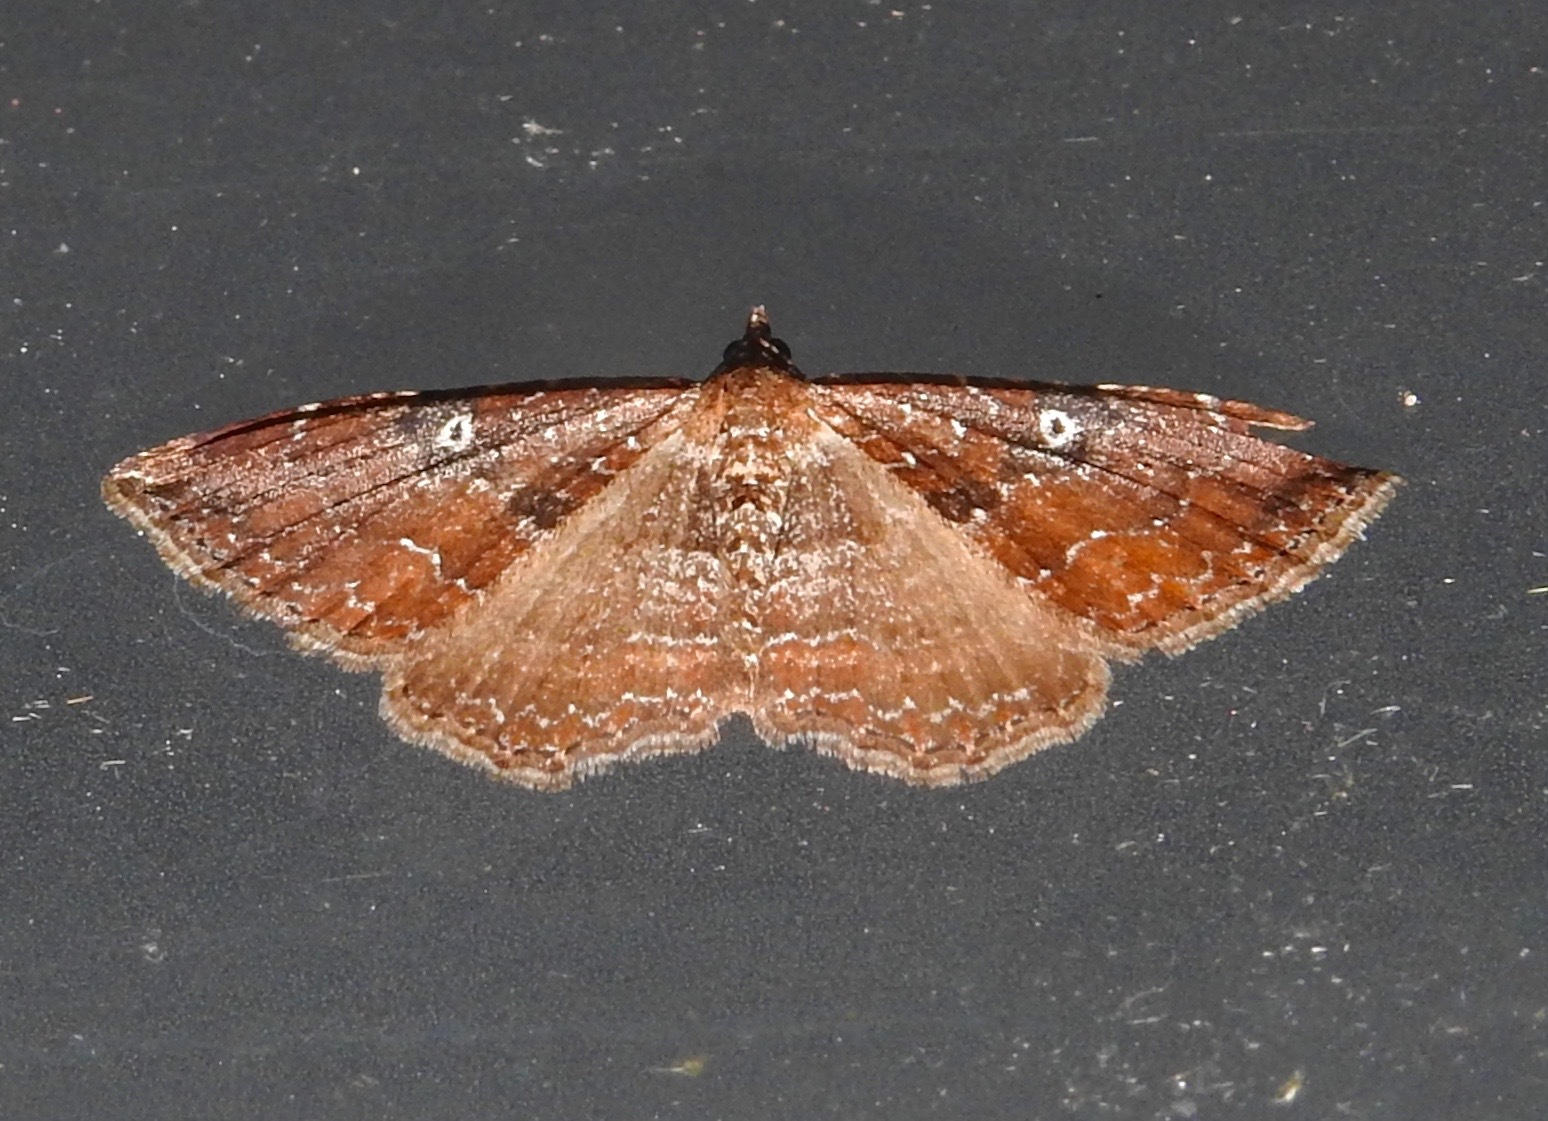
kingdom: Animalia
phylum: Arthropoda
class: Insecta
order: Lepidoptera
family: Geometridae
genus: Orthonama
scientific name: Orthonama obstipata
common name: The gem
